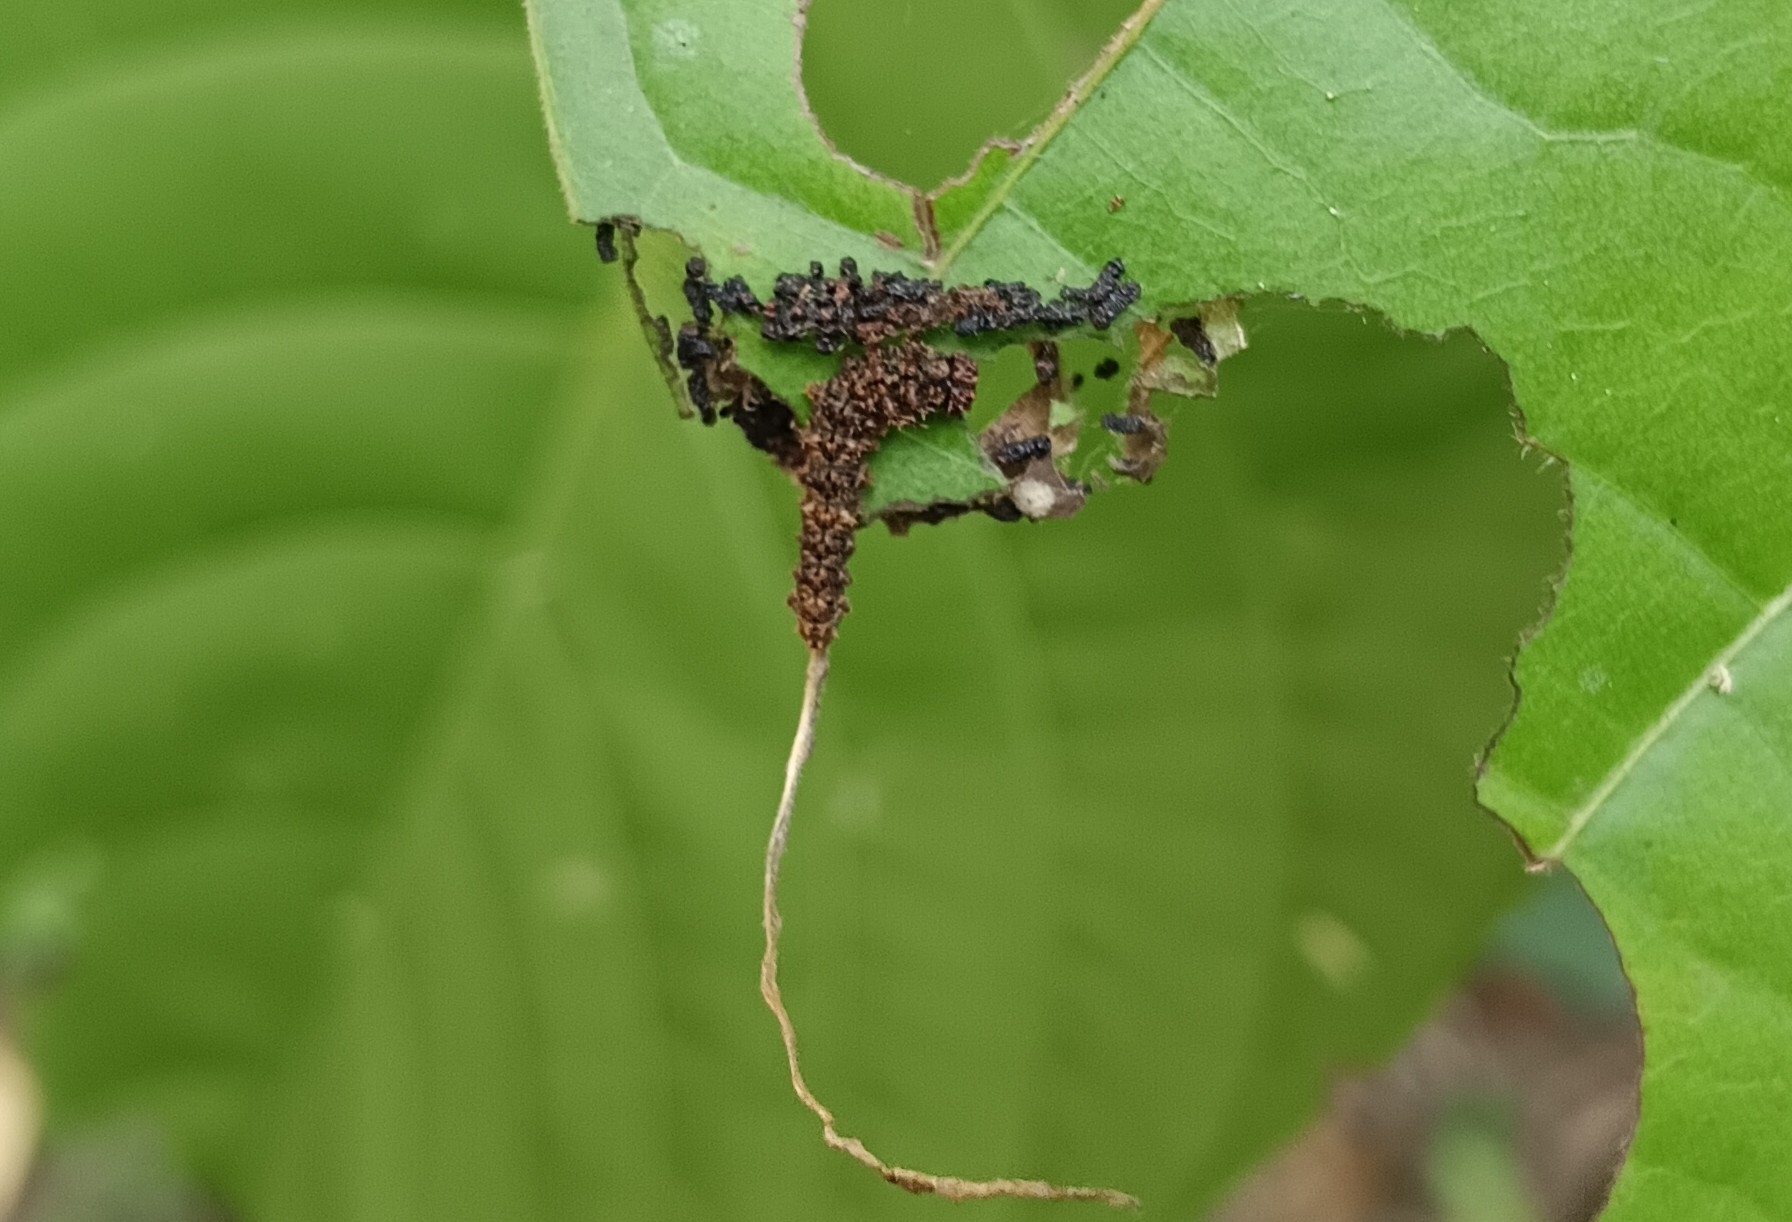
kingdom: Animalia
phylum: Arthropoda
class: Insecta
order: Lepidoptera
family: Nymphalidae
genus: Limenitis
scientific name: Limenitis Moduza procris
